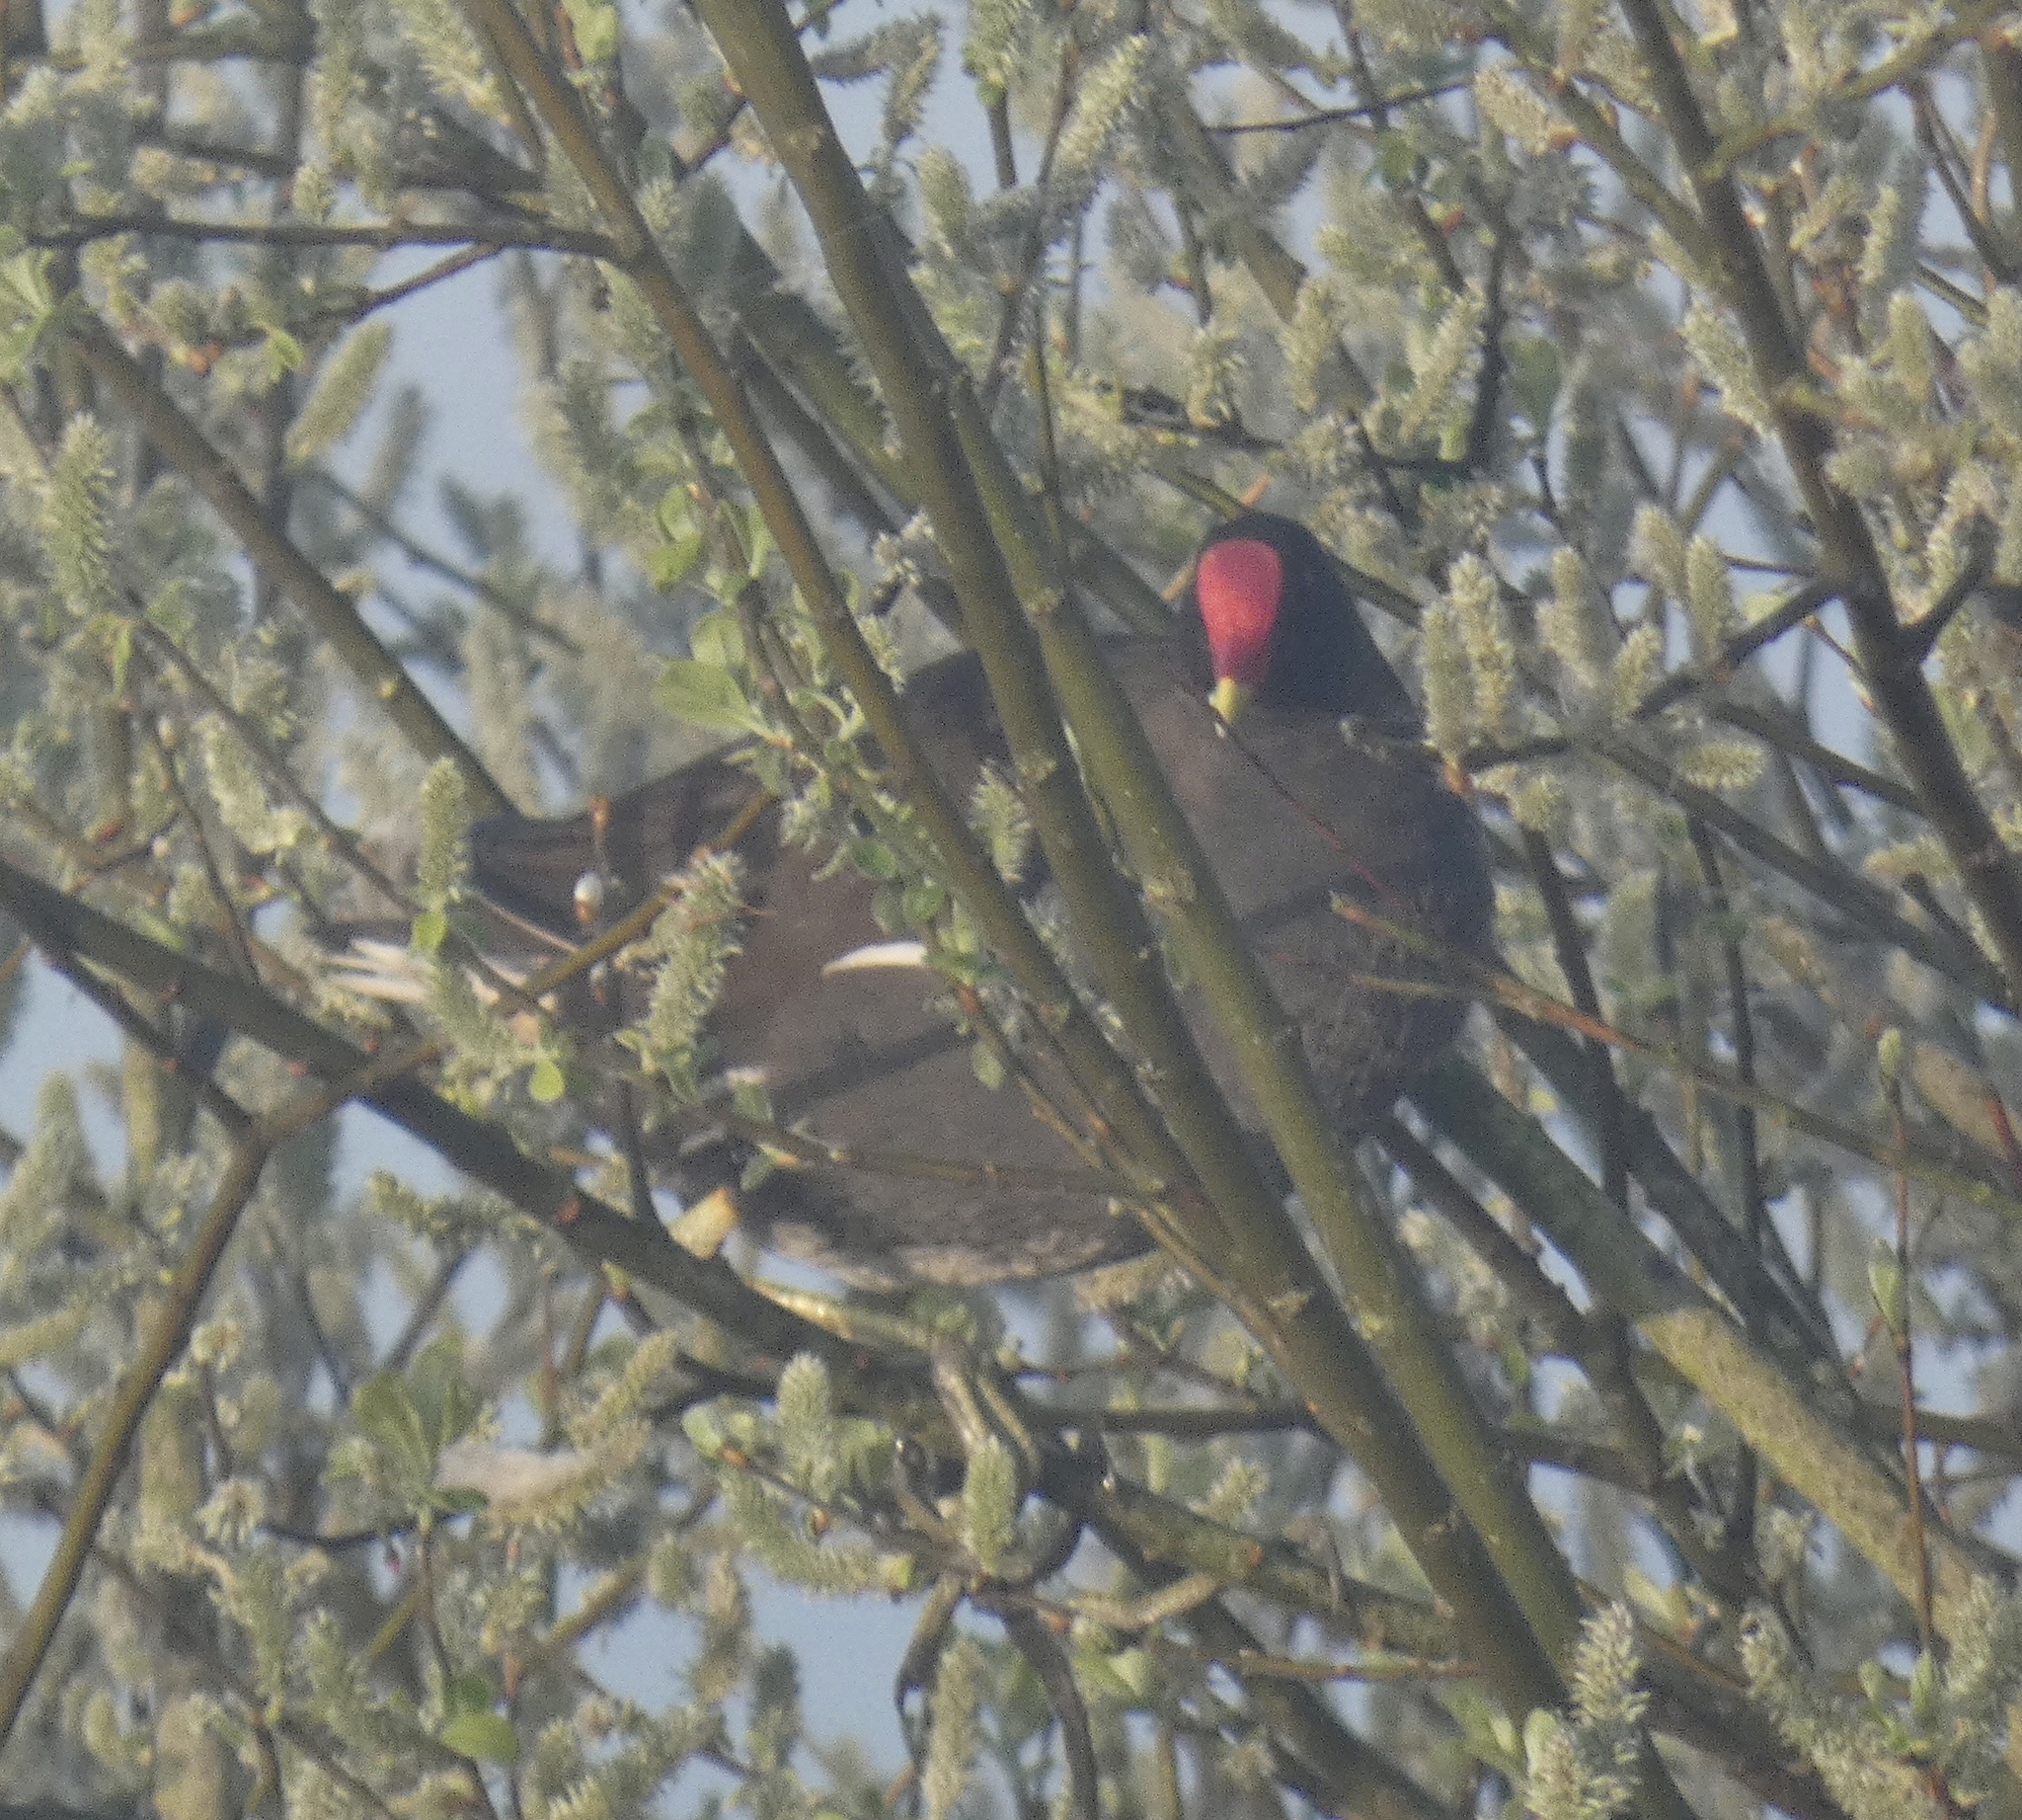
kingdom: Animalia
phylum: Chordata
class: Aves
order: Gruiformes
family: Rallidae
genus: Gallinula
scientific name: Gallinula chloropus
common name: Common moorhen
